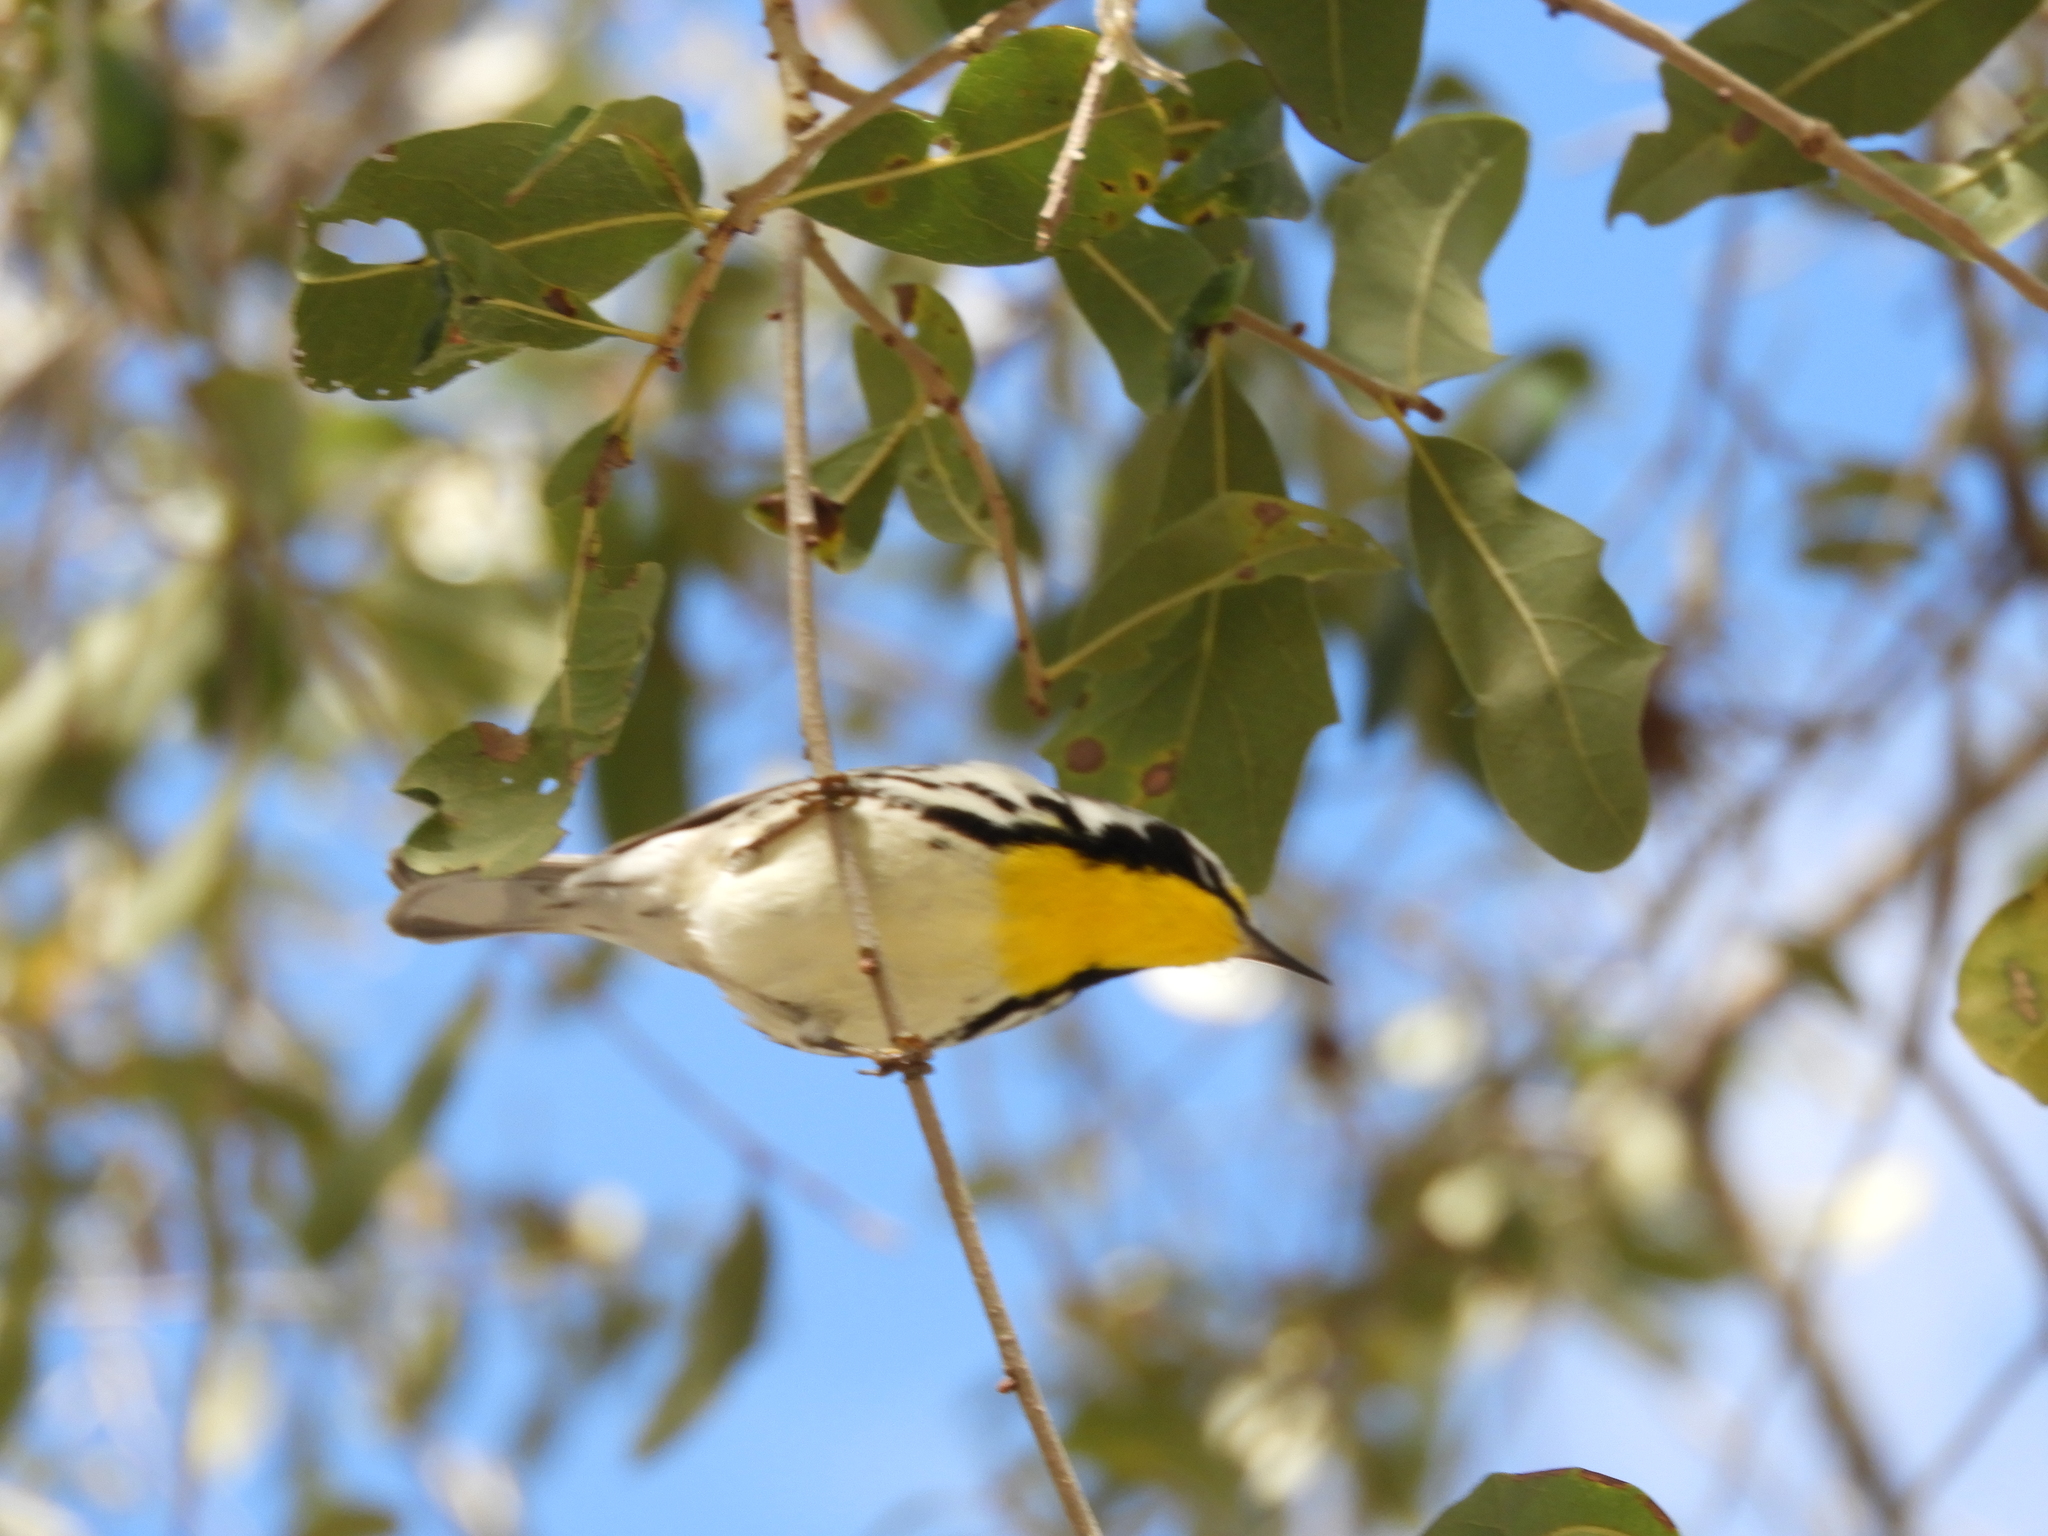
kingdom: Animalia
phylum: Chordata
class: Aves
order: Passeriformes
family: Parulidae
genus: Setophaga
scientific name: Setophaga dominica
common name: Yellow-throated warbler
